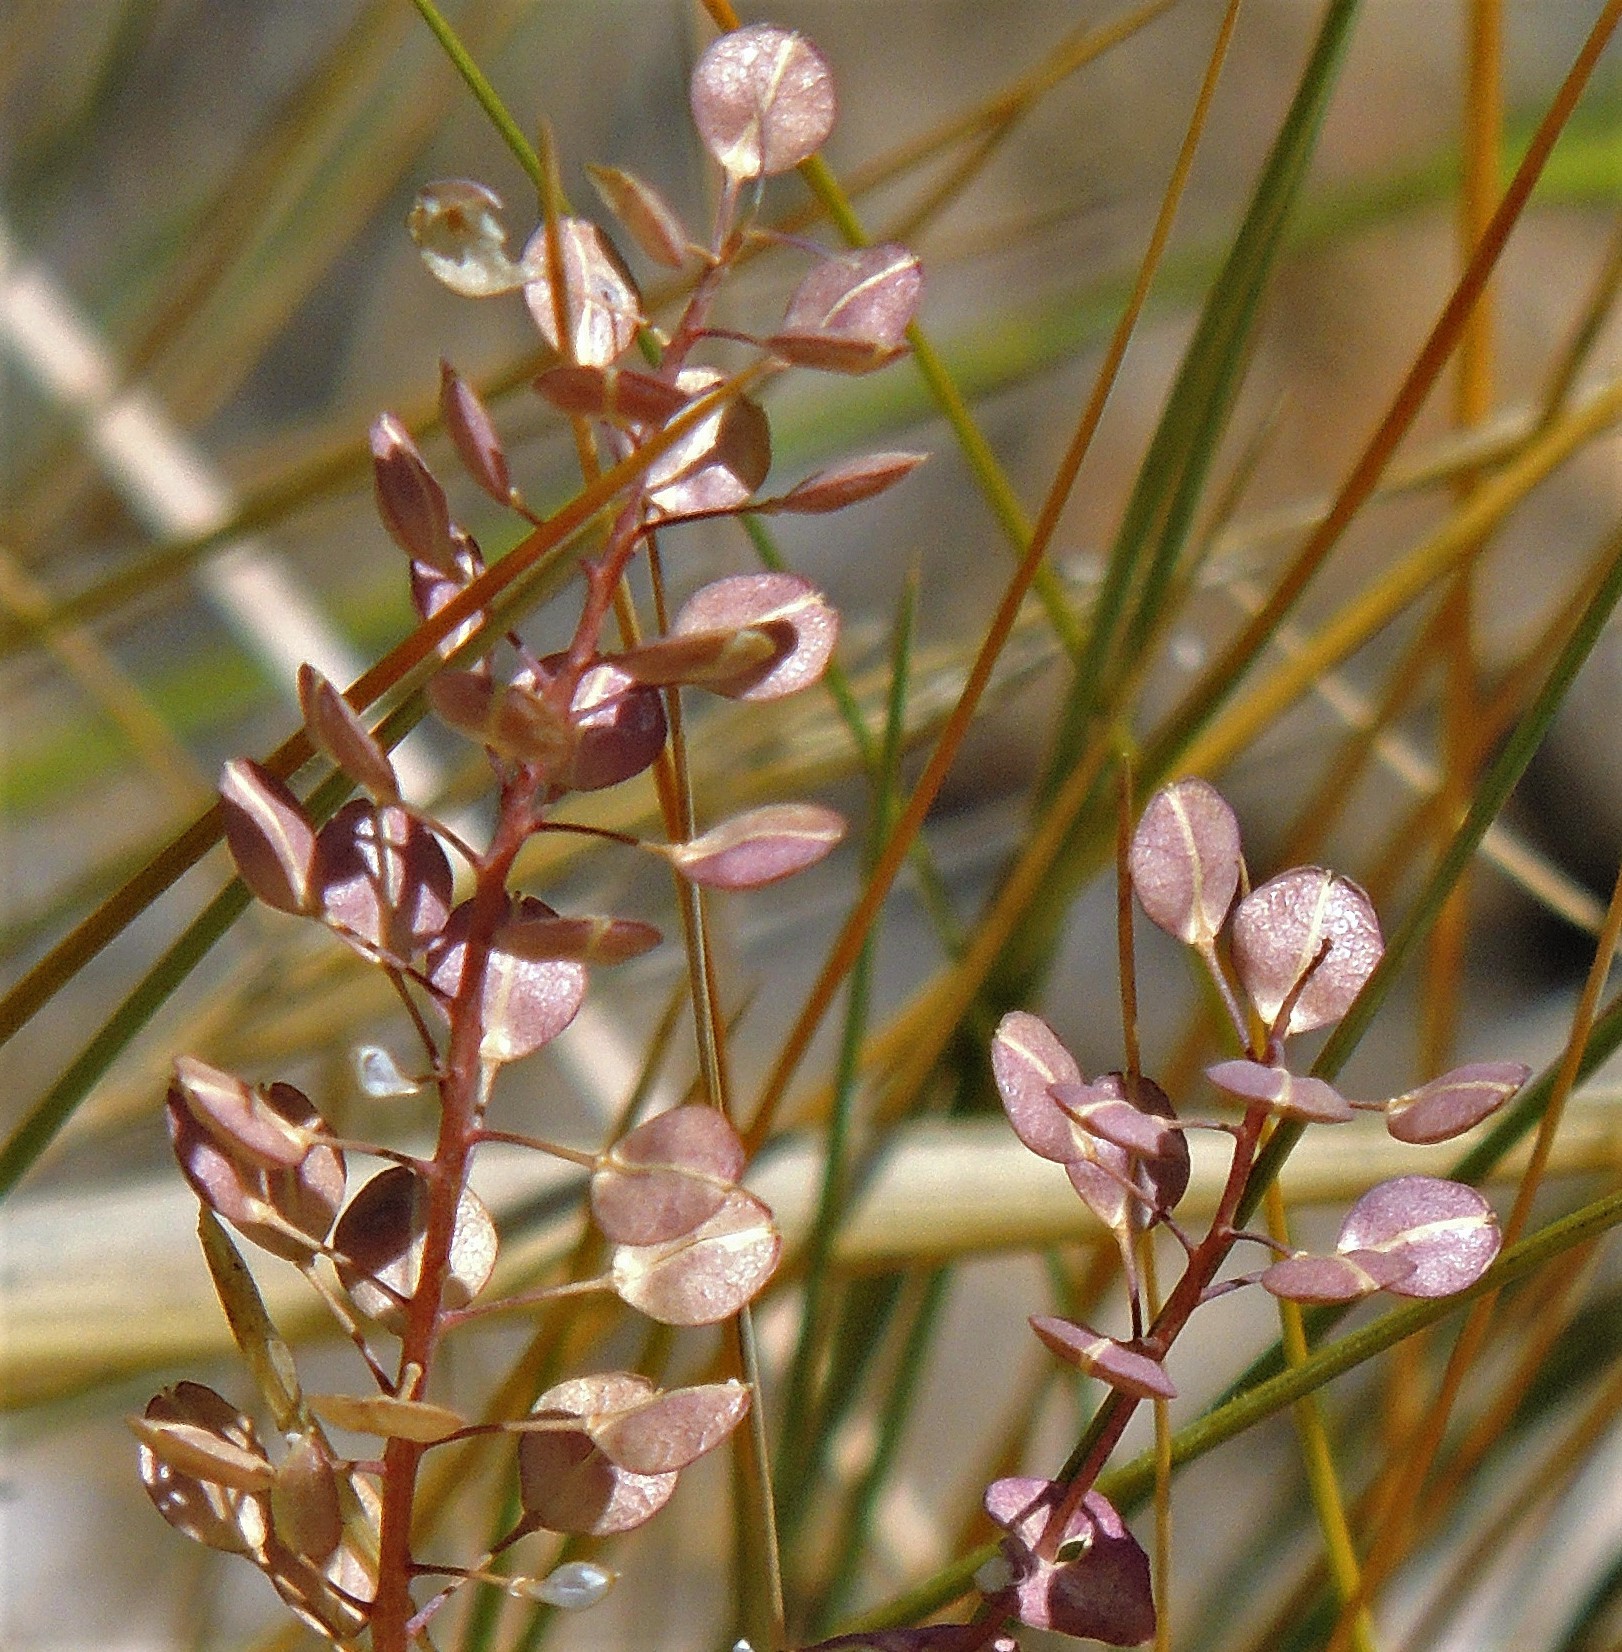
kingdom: Plantae
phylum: Tracheophyta
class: Magnoliopsida
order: Brassicales
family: Brassicaceae
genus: Lepidium
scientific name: Lepidium perfoliatum
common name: Perfoliate pepperwort
